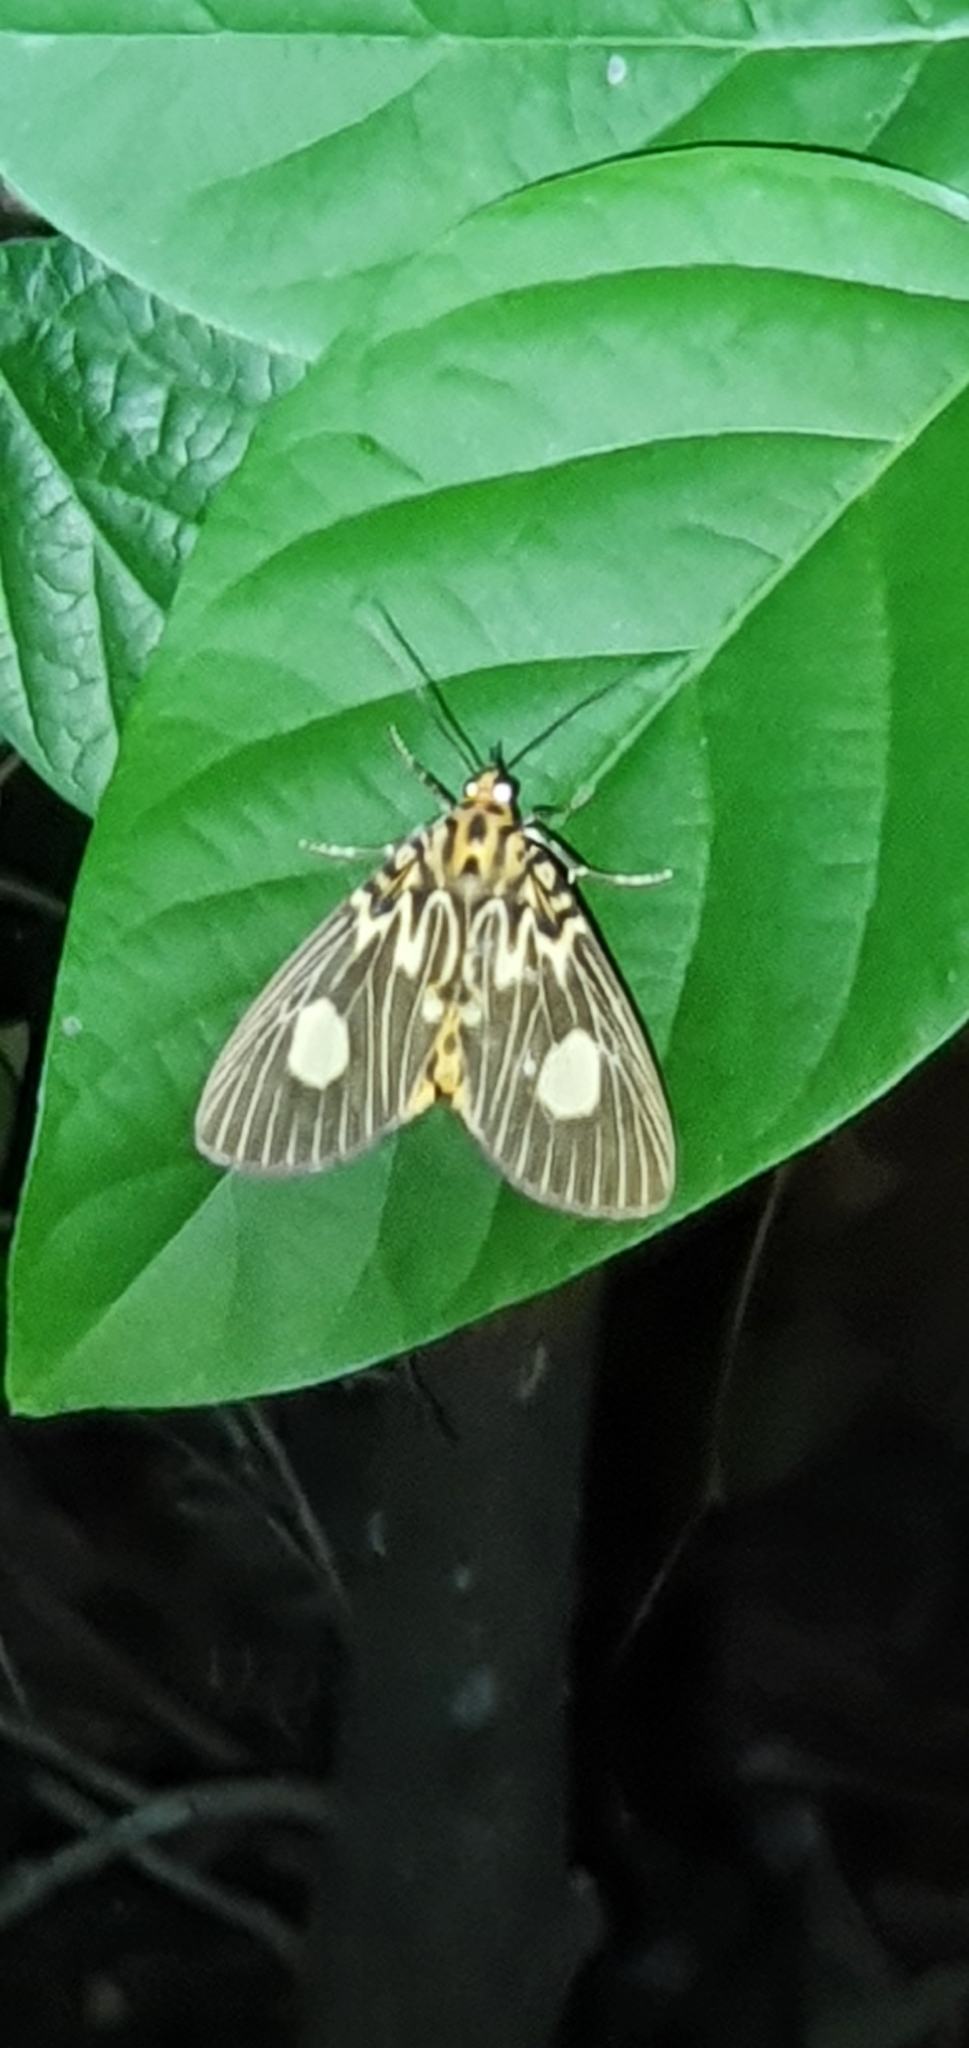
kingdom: Animalia
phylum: Arthropoda
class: Insecta
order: Lepidoptera
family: Erebidae
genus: Asota
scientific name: Asota plagiata
